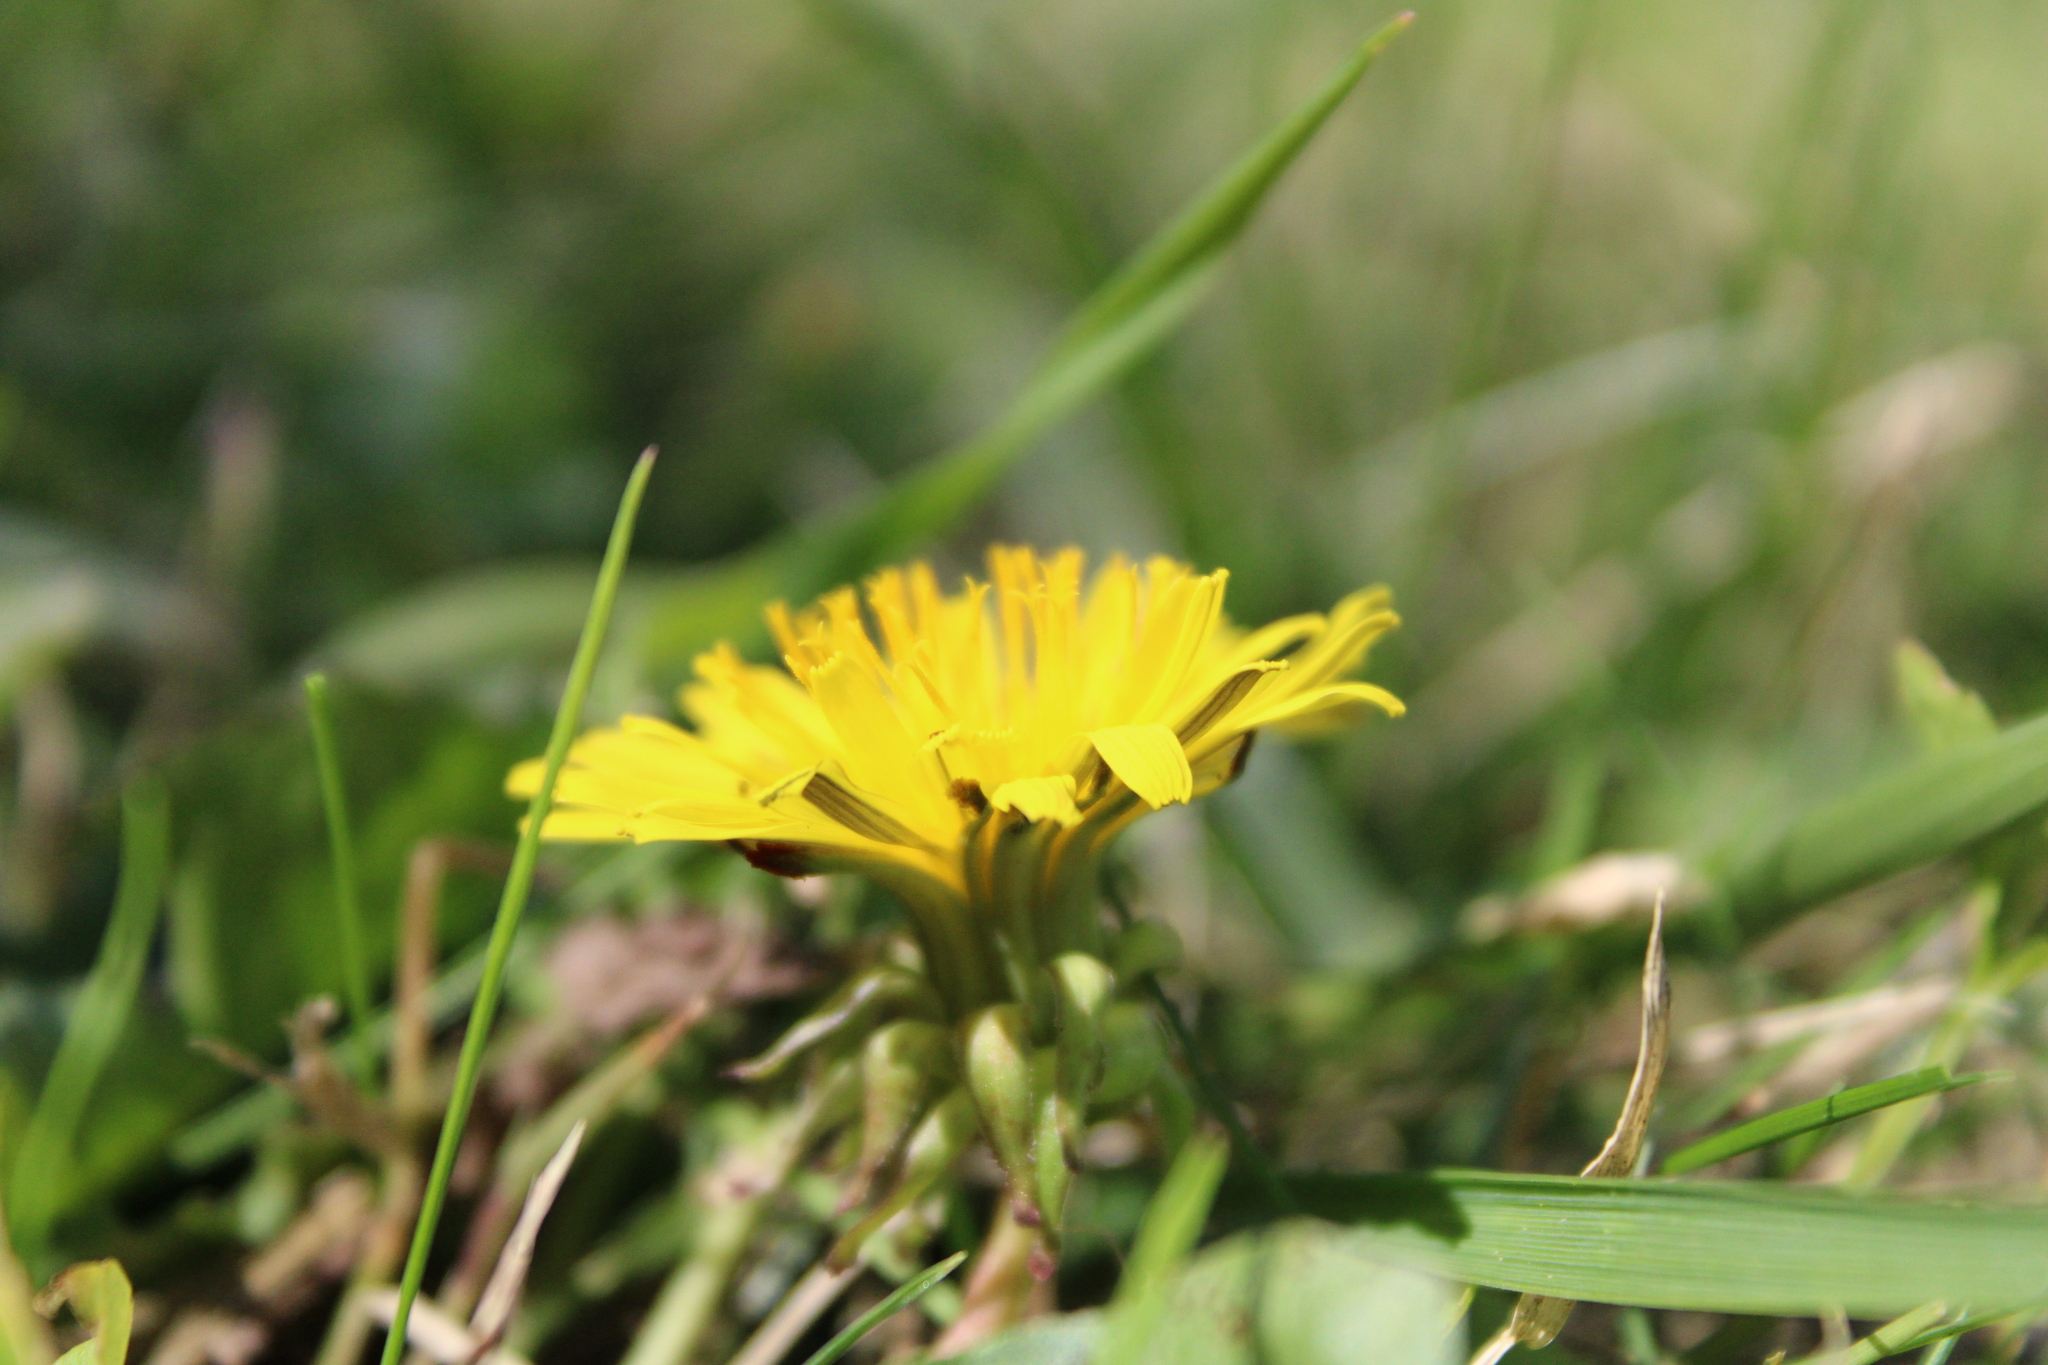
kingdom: Plantae
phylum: Tracheophyta
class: Magnoliopsida
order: Asterales
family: Asteraceae
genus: Taraxacum
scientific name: Taraxacum
